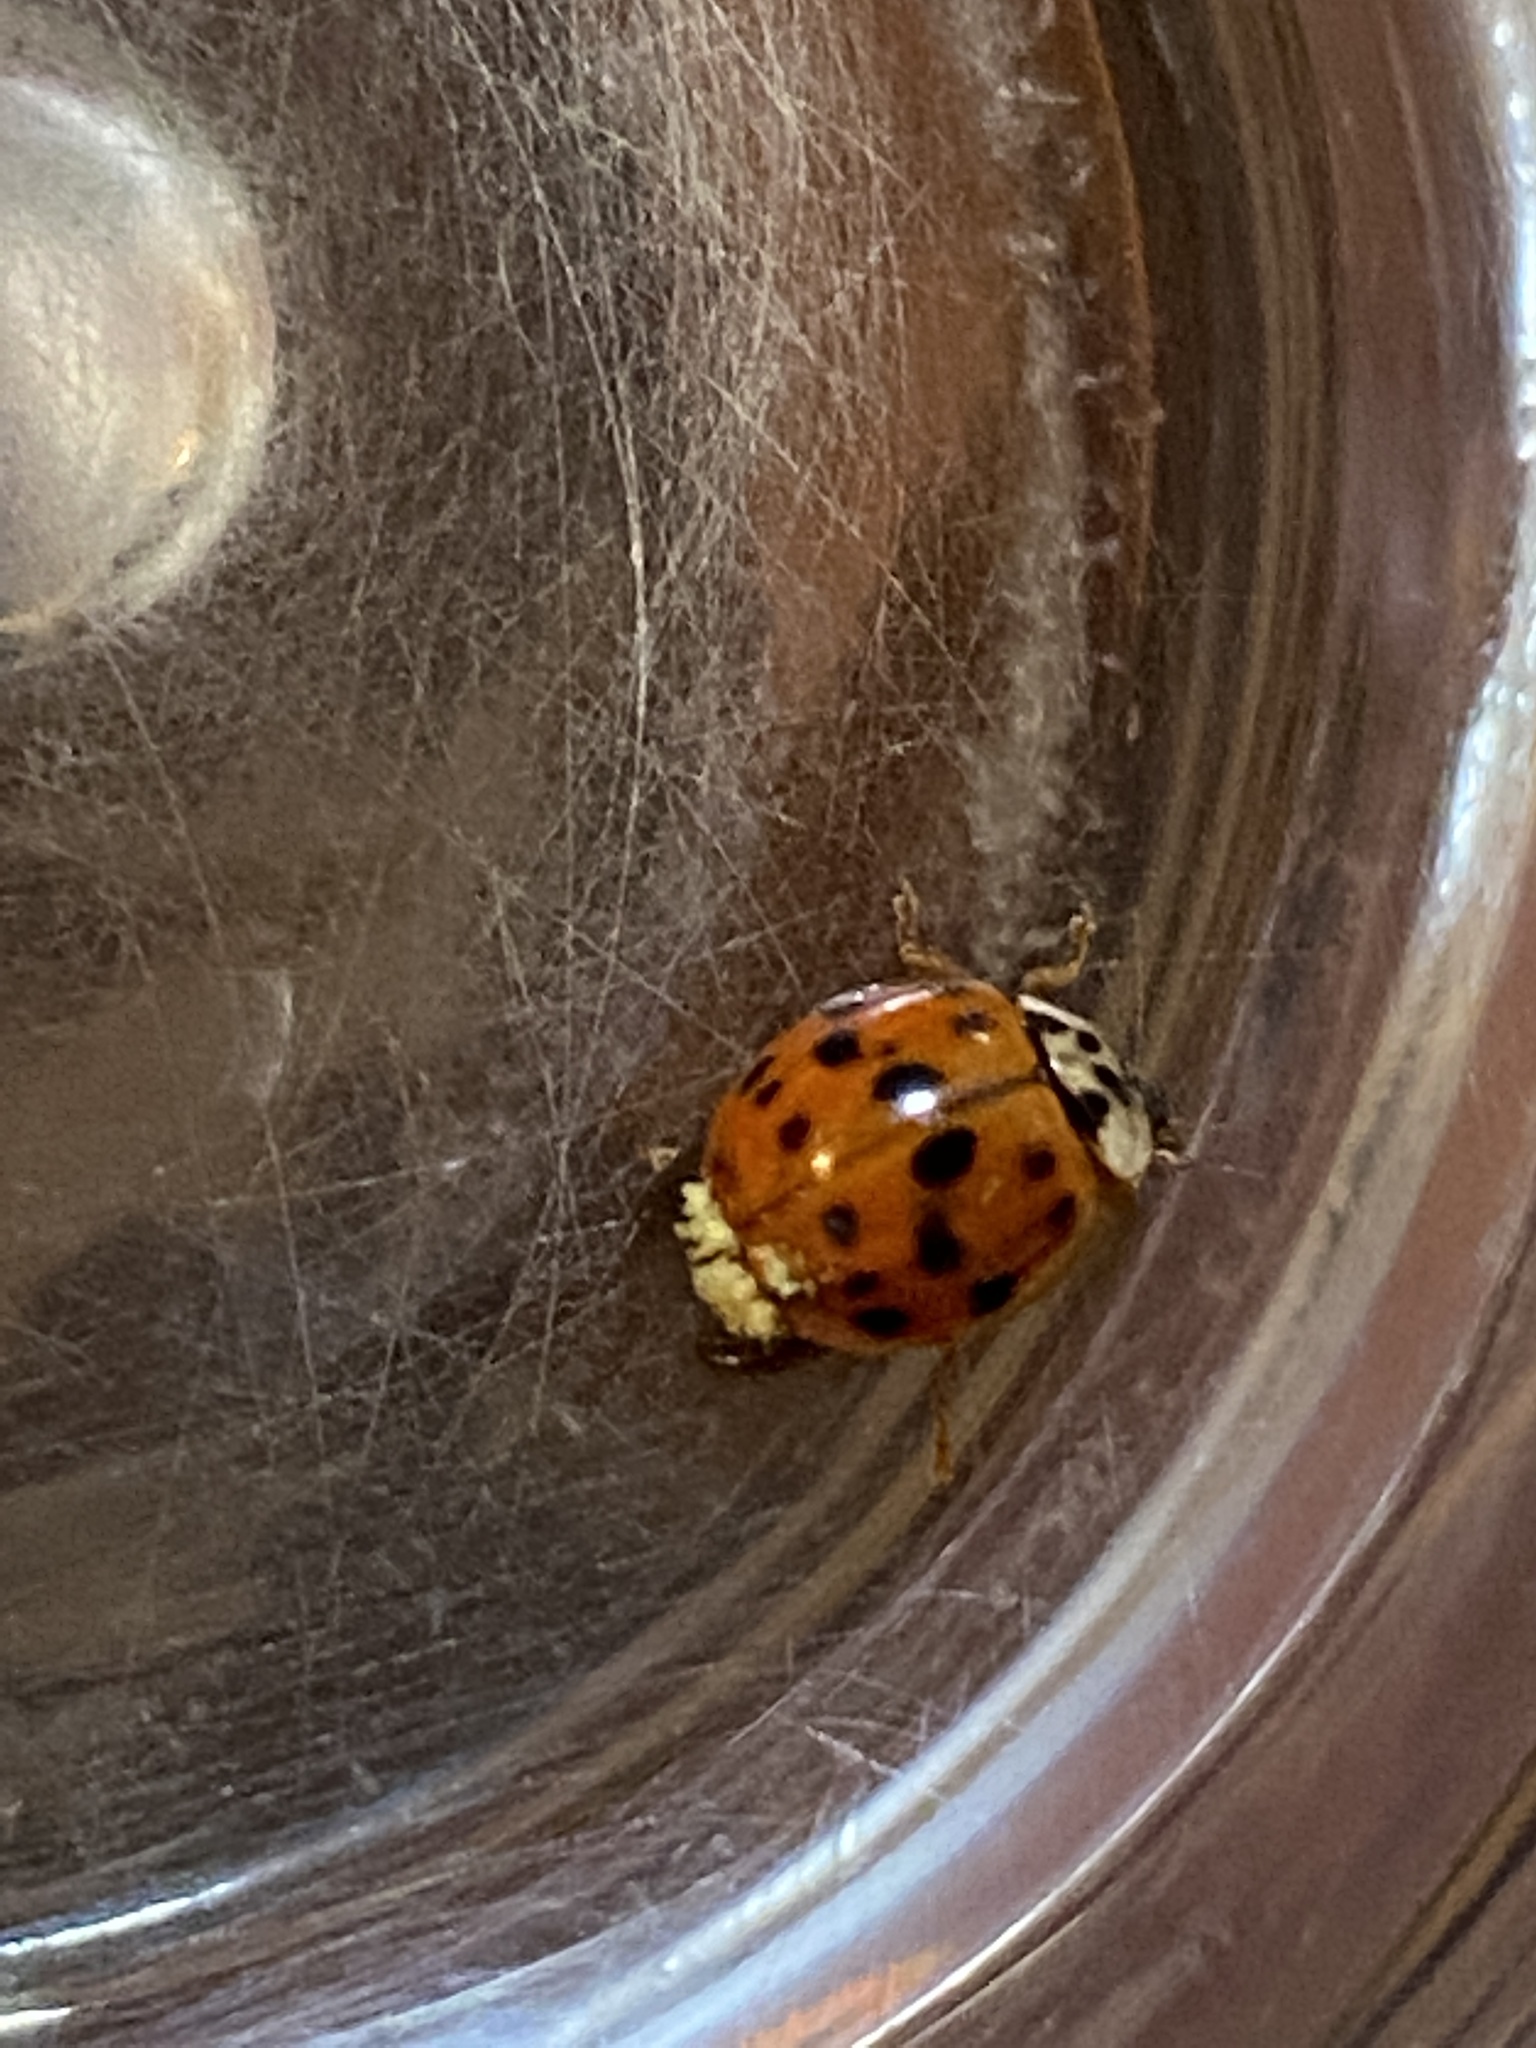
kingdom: Fungi
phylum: Ascomycota
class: Laboulbeniomycetes
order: Laboulbeniales
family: Laboulbeniaceae
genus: Hesperomyces
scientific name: Hesperomyces harmoniae
